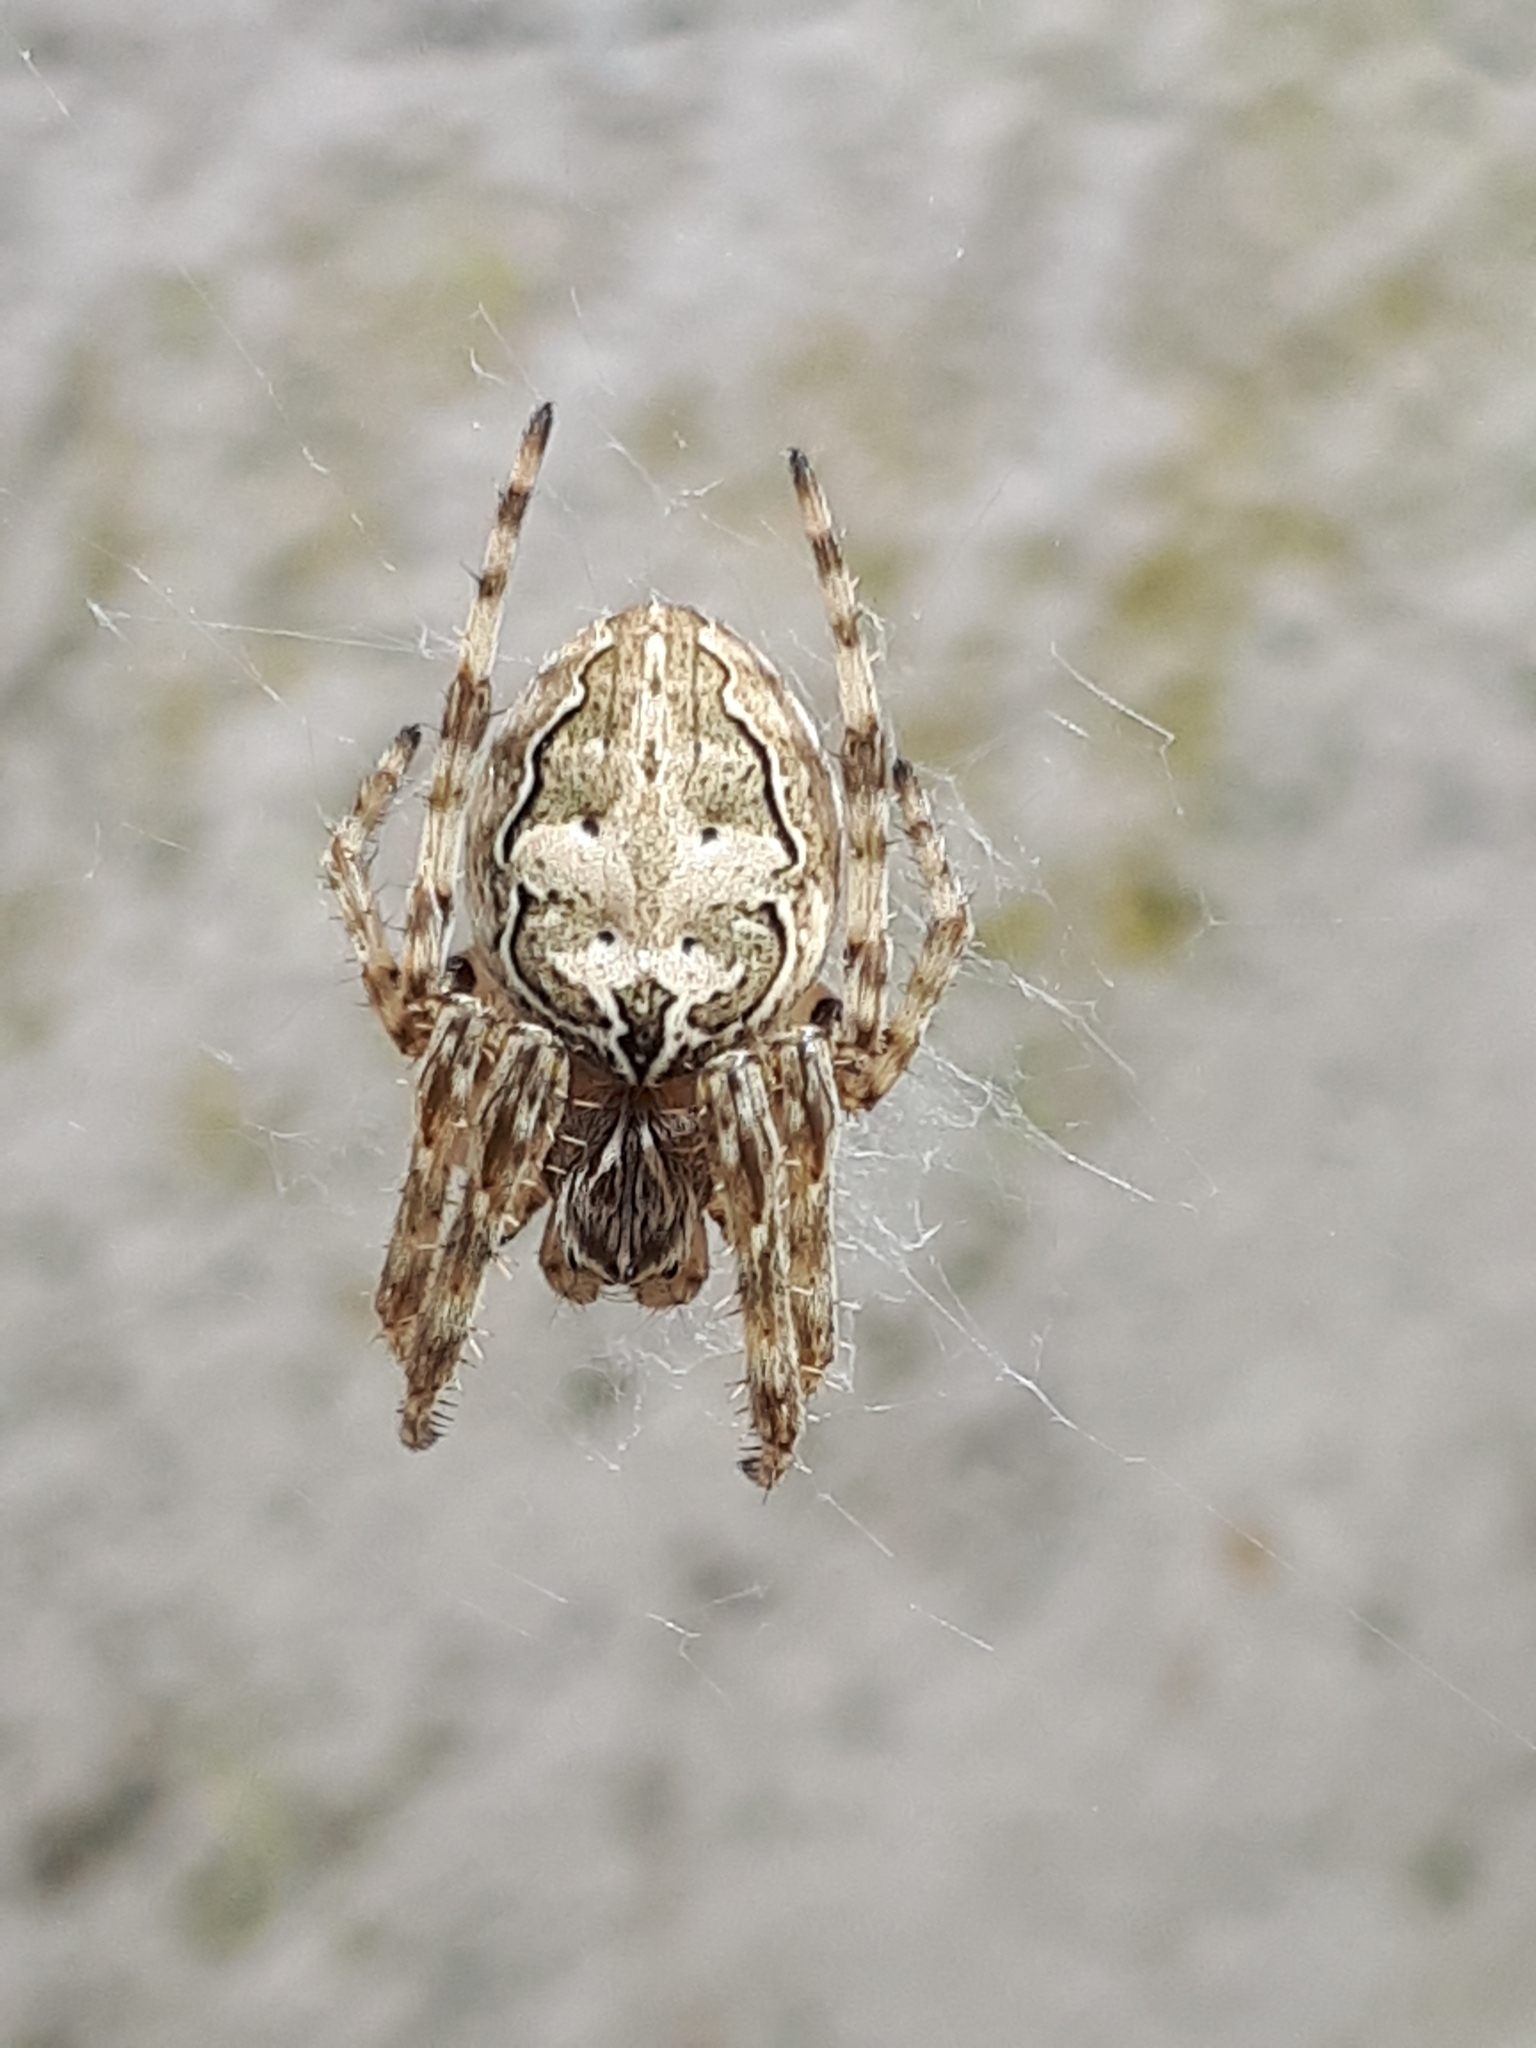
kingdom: Animalia
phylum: Arthropoda
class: Arachnida
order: Araneae
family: Araneidae
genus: Larinioides
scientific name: Larinioides sclopetarius
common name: Bridge orbweaver
